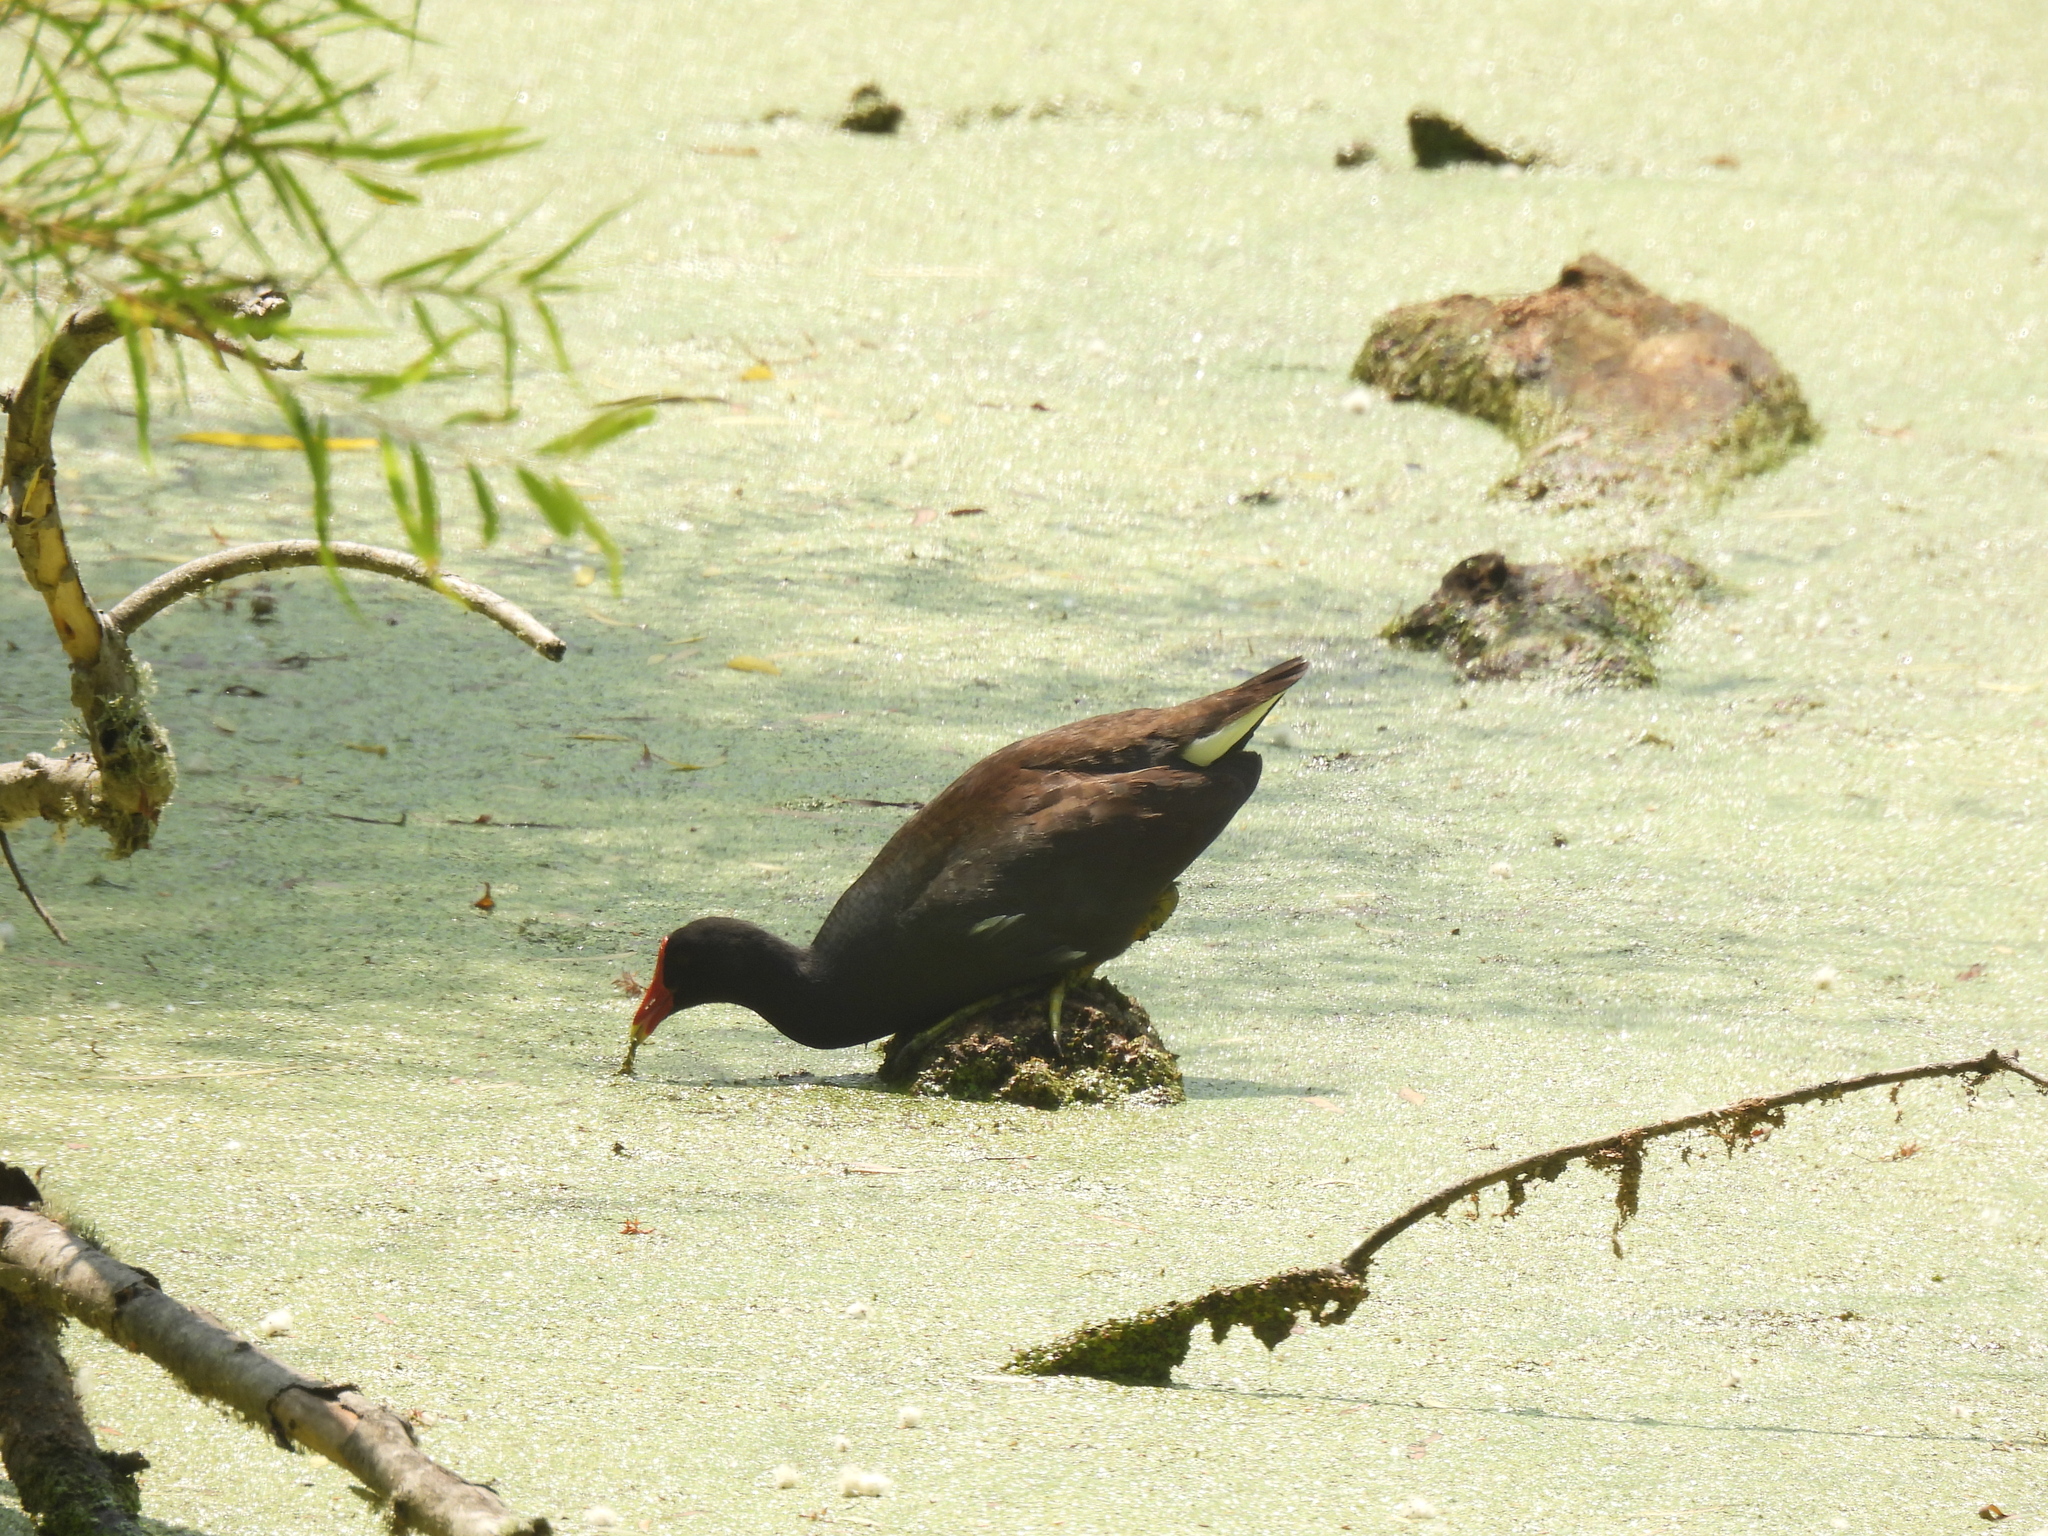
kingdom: Animalia
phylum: Chordata
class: Aves
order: Gruiformes
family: Rallidae
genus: Gallinula
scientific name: Gallinula chloropus
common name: Common moorhen
